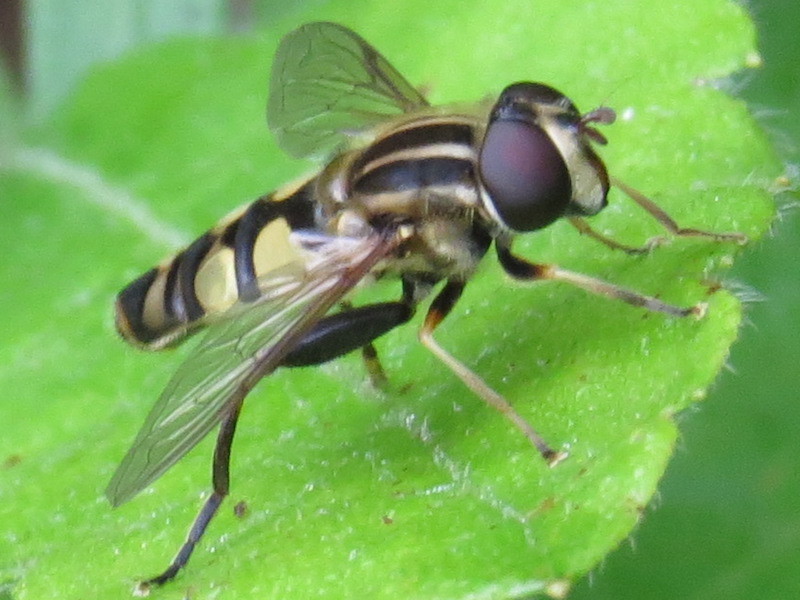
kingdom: Animalia
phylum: Arthropoda
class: Insecta
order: Diptera
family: Syrphidae
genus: Helophilus
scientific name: Helophilus fasciatus
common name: Narrow-headed marsh fly
